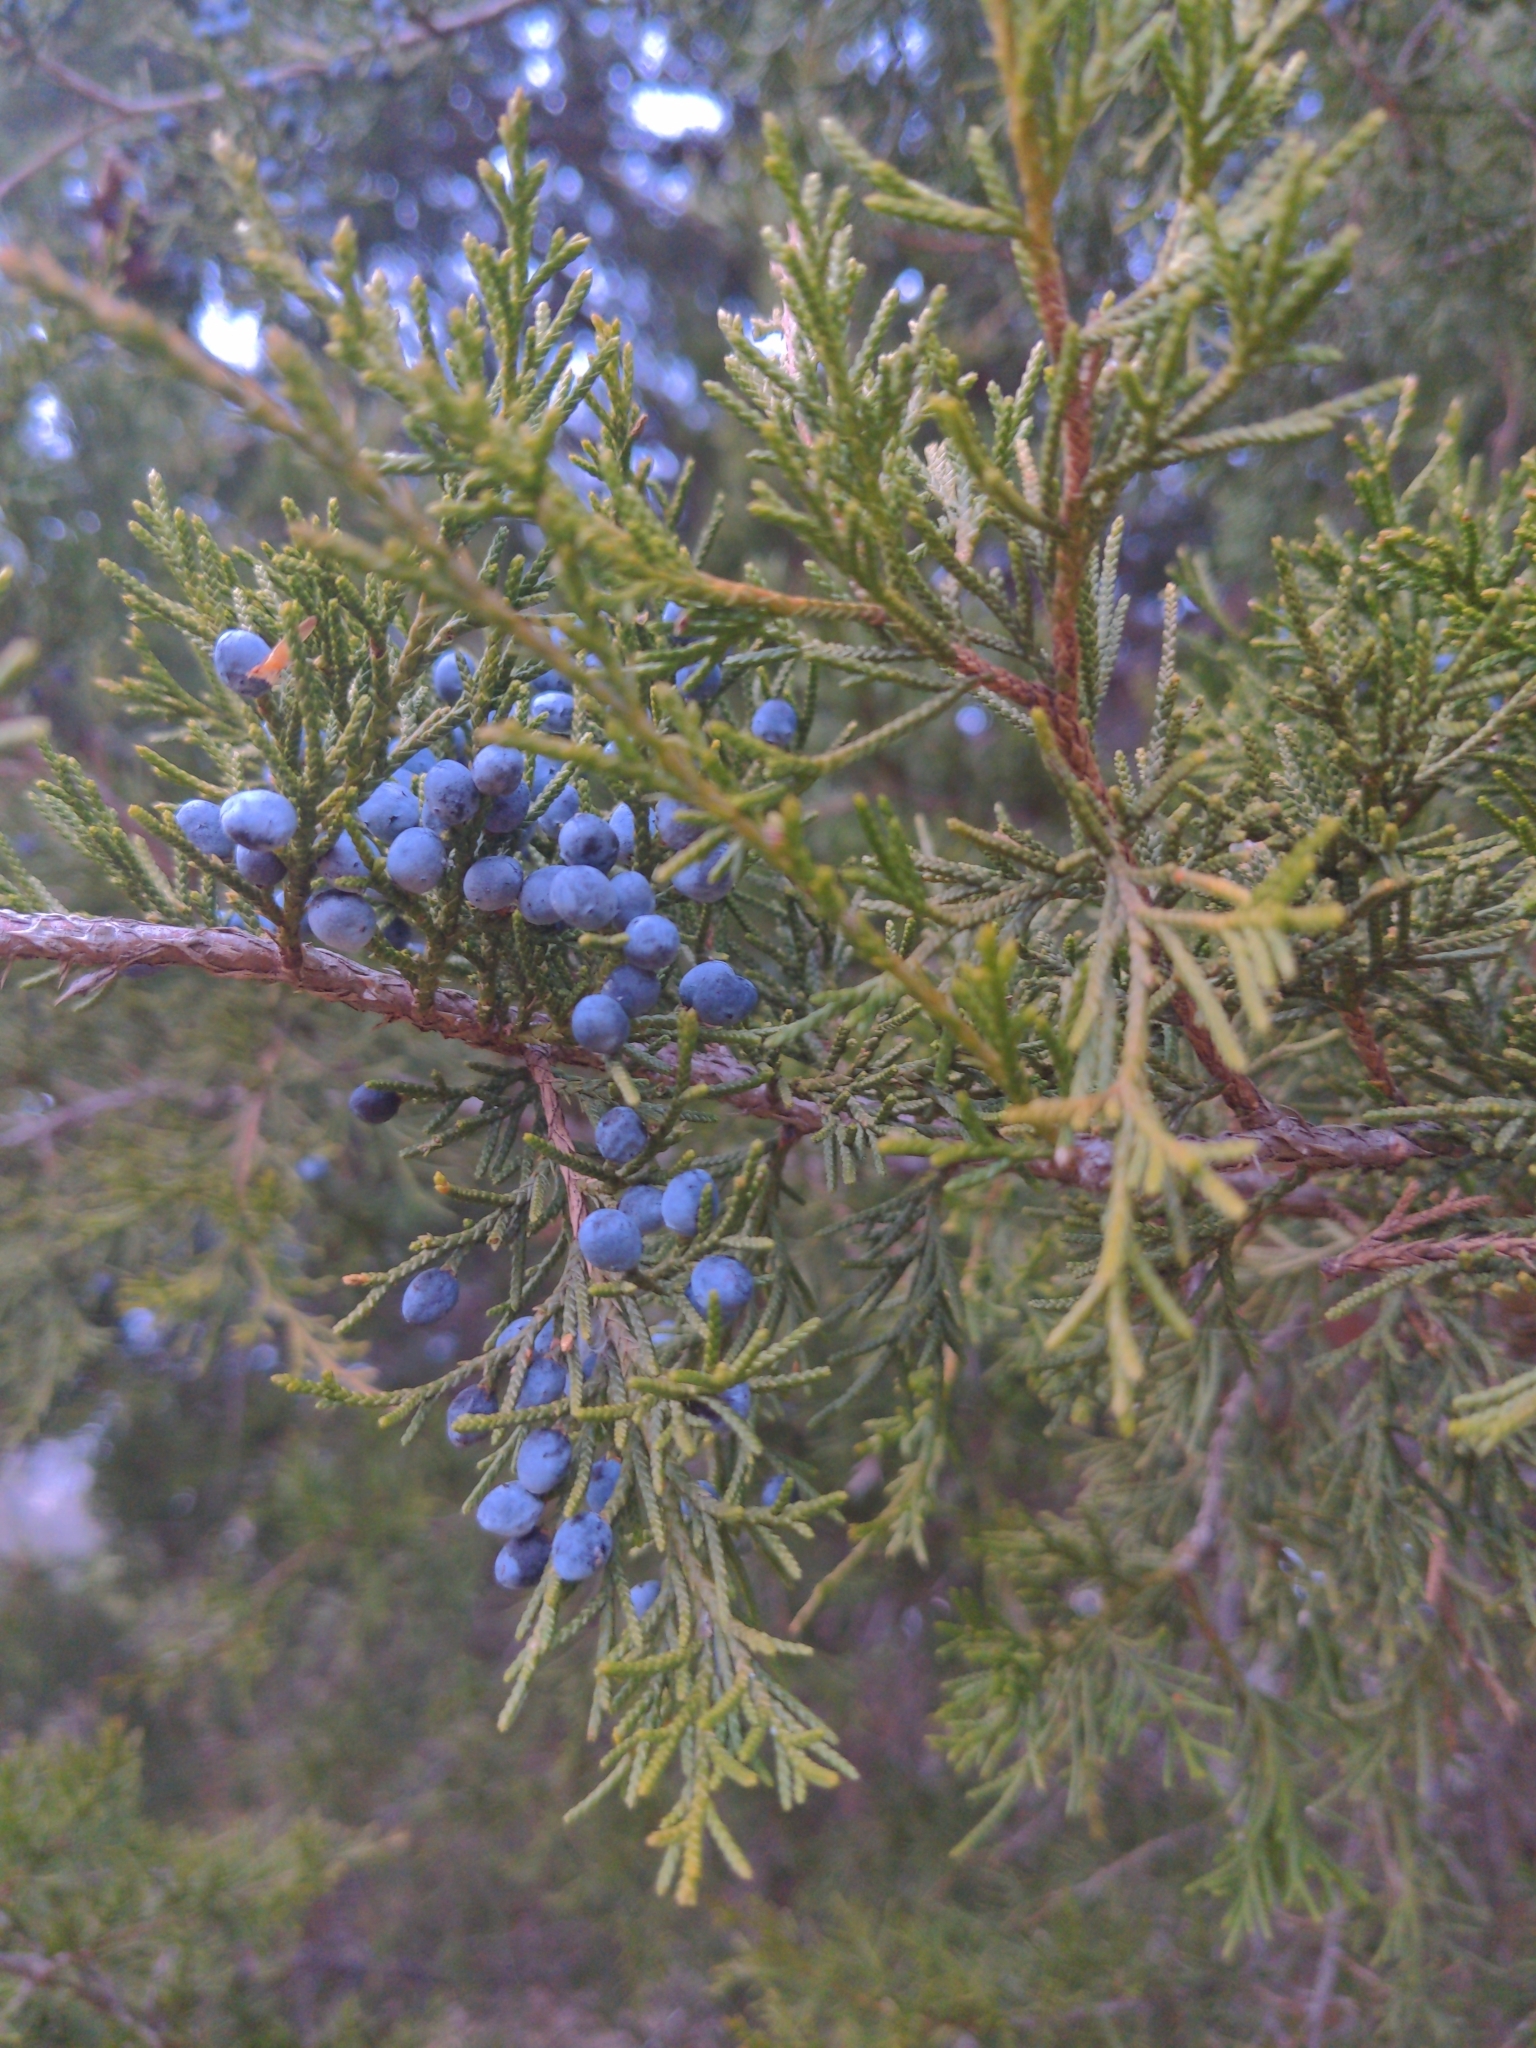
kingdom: Plantae
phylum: Tracheophyta
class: Pinopsida
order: Pinales
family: Cupressaceae
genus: Juniperus
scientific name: Juniperus virginiana
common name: Red juniper
